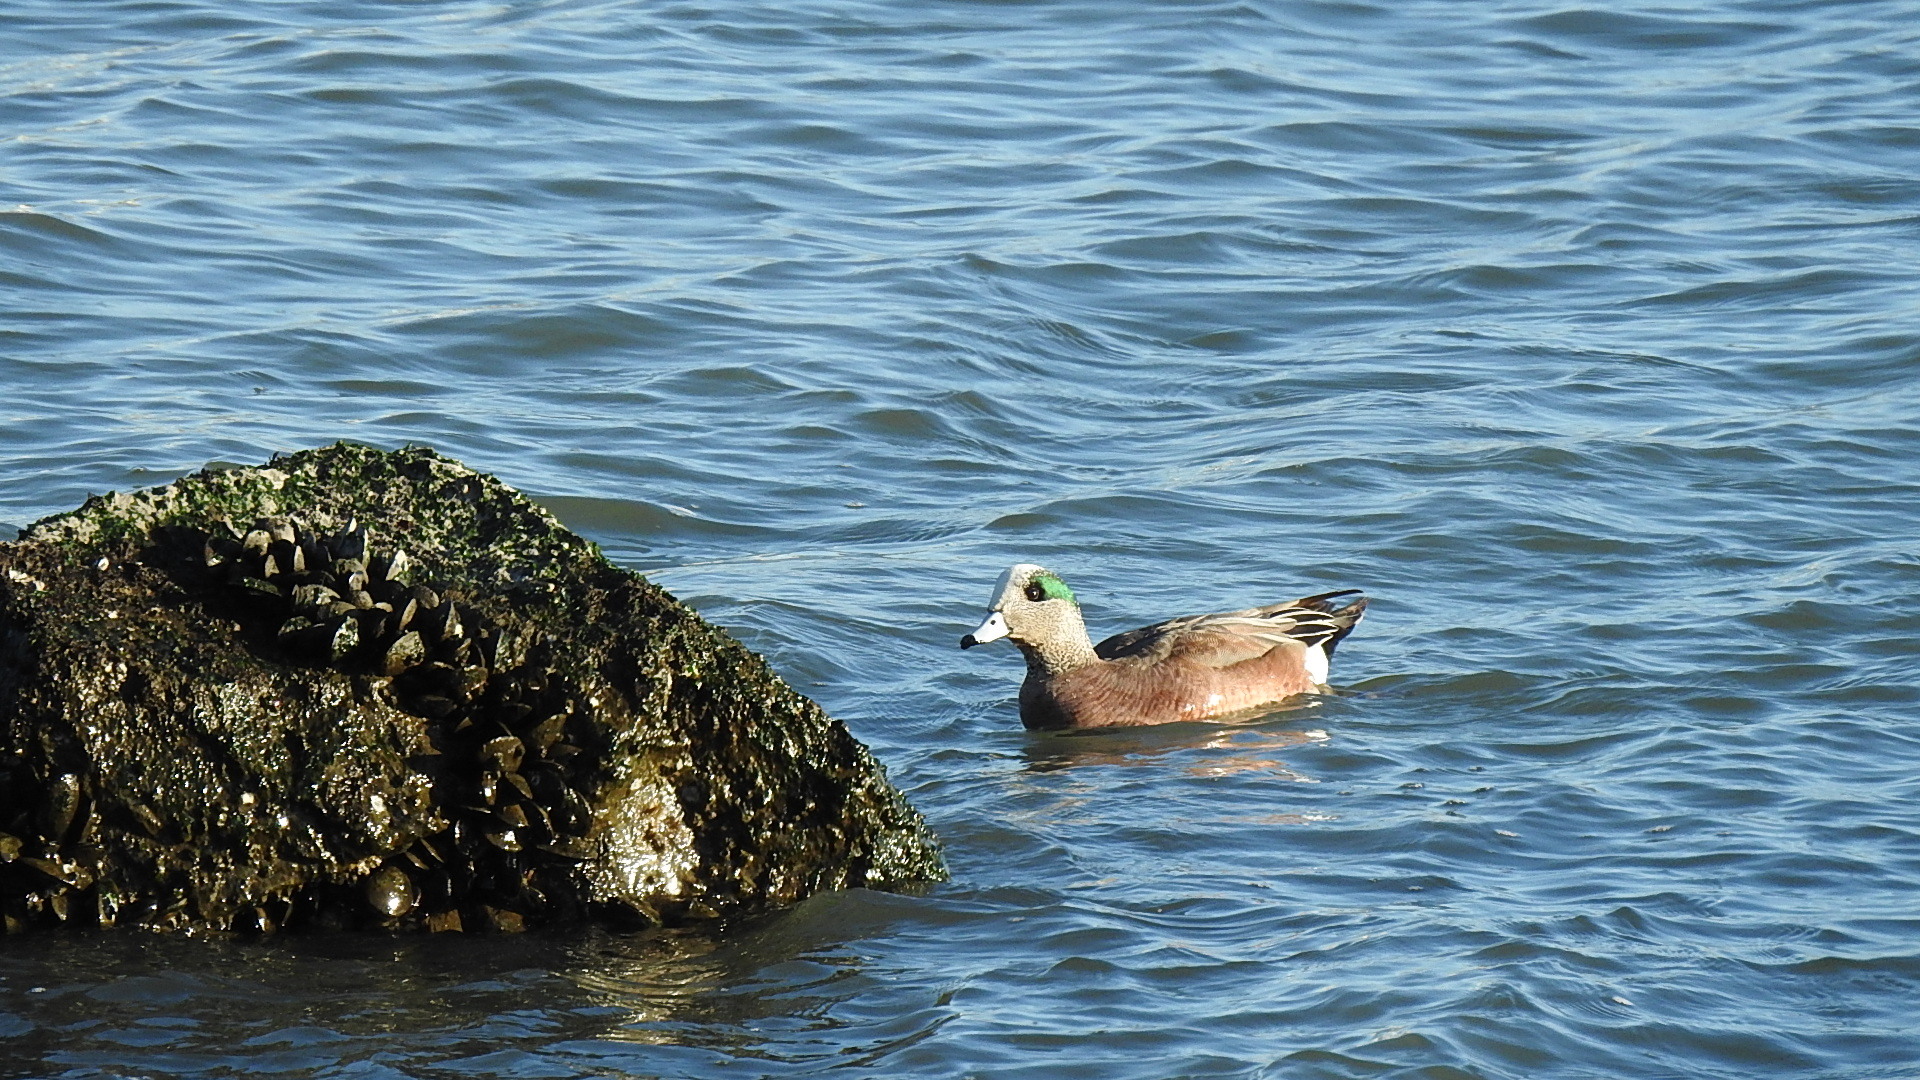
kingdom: Animalia
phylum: Chordata
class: Aves
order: Anseriformes
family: Anatidae
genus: Mareca
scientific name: Mareca americana
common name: American wigeon
